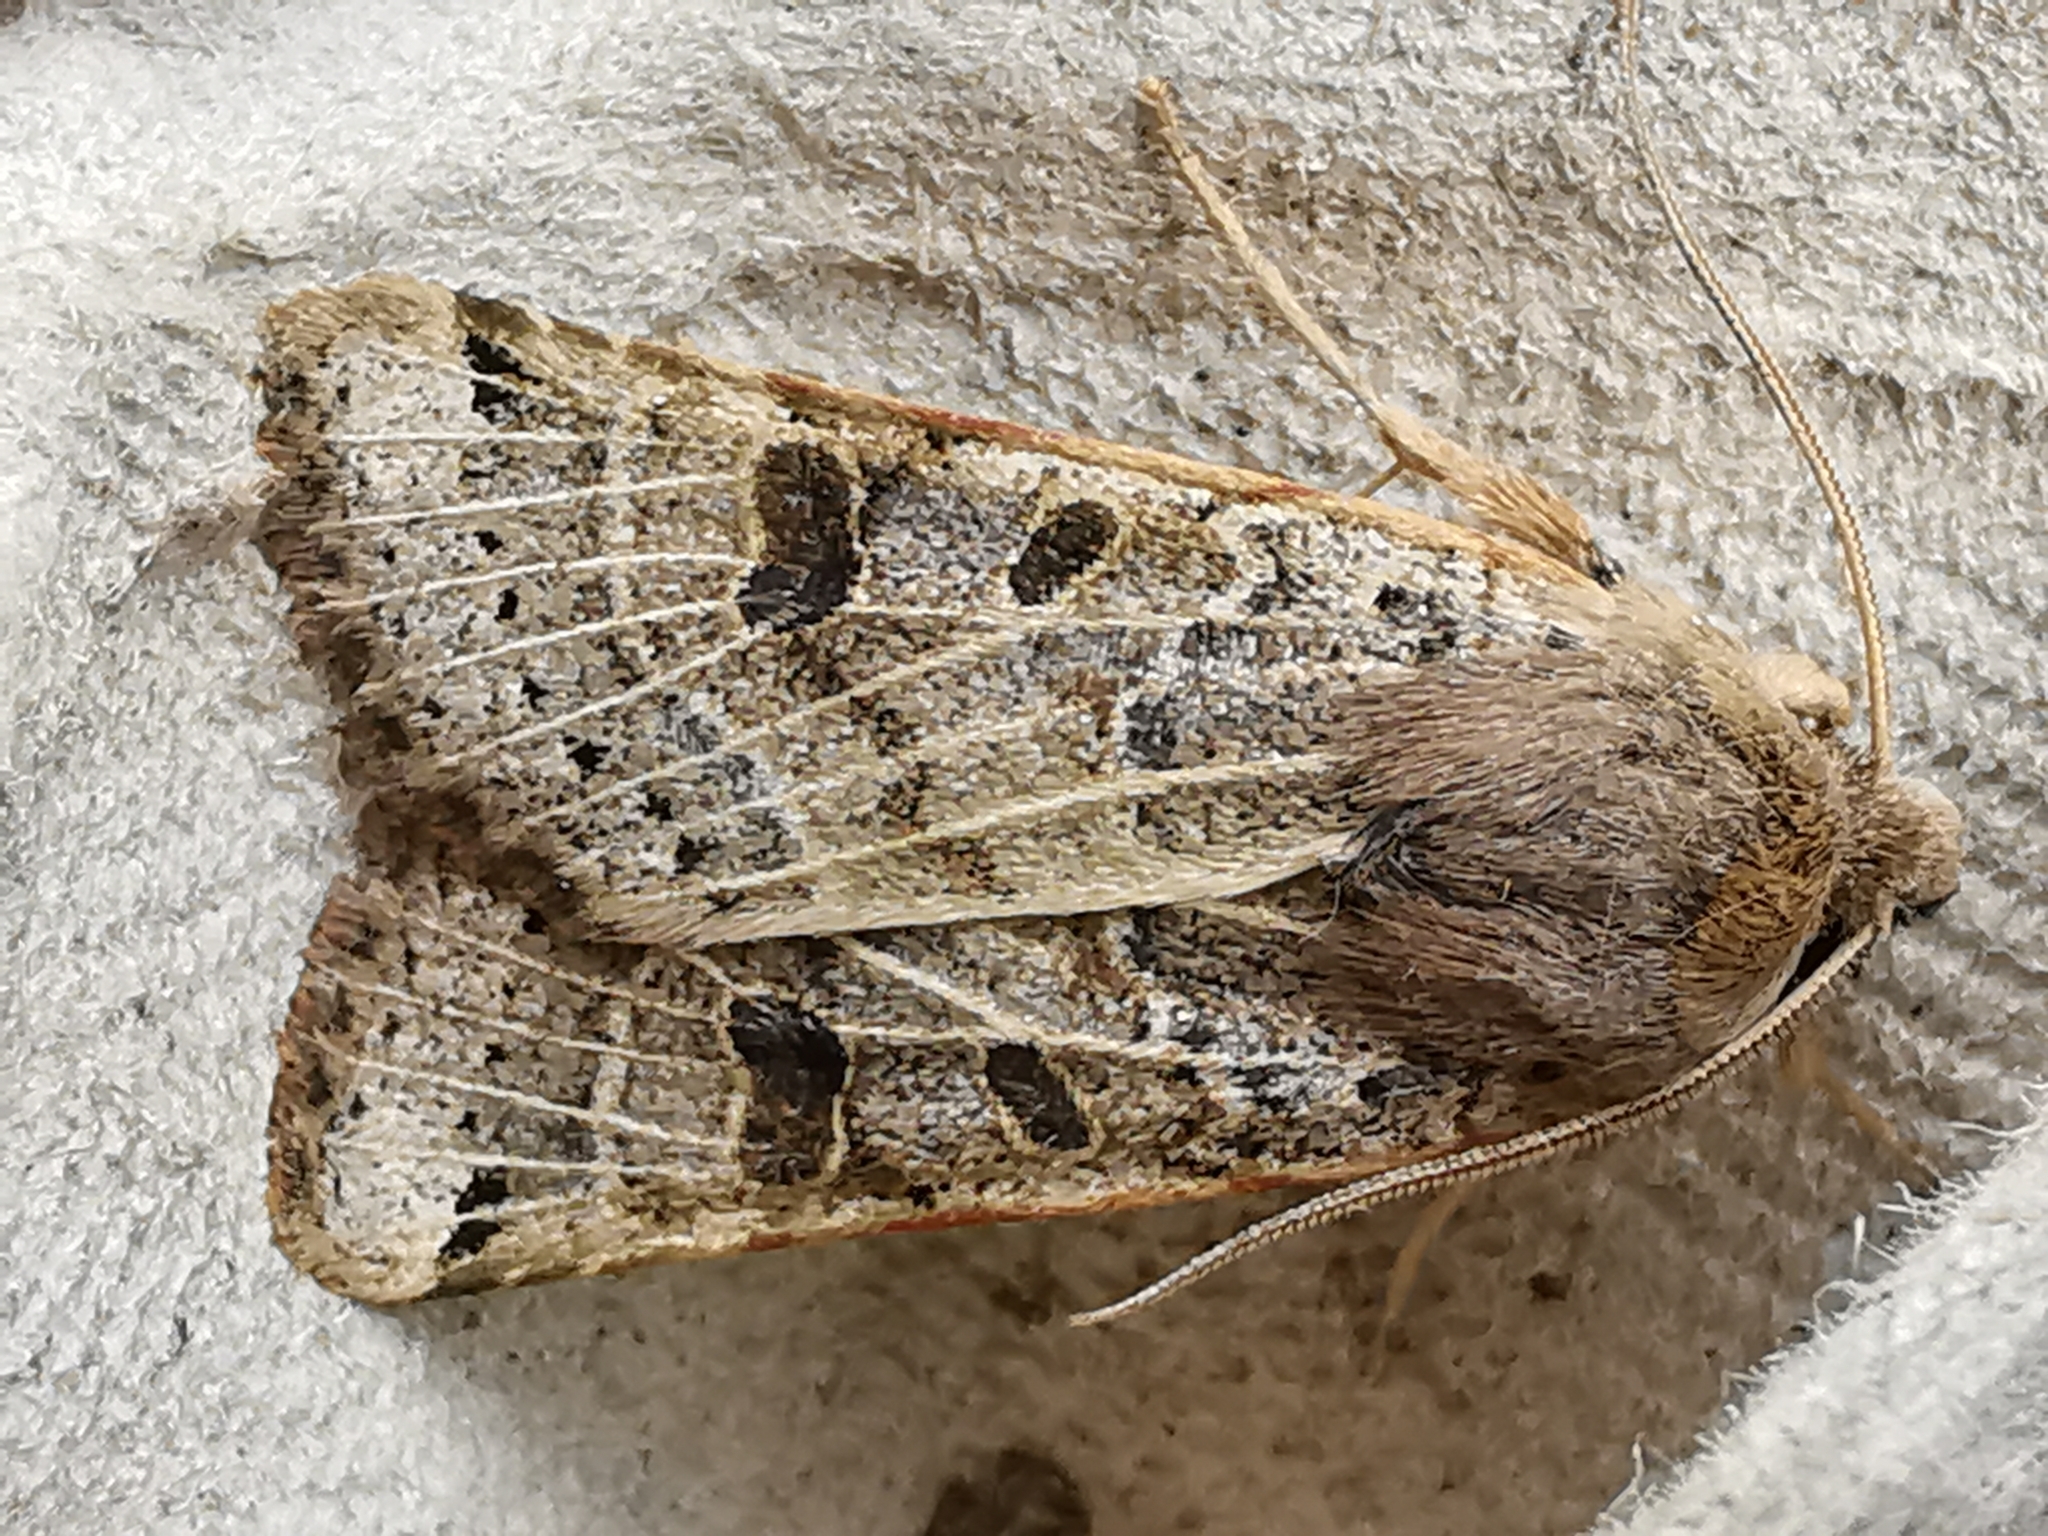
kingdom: Animalia
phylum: Arthropoda
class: Insecta
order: Lepidoptera
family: Noctuidae
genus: Agrochola
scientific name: Agrochola lunosa
